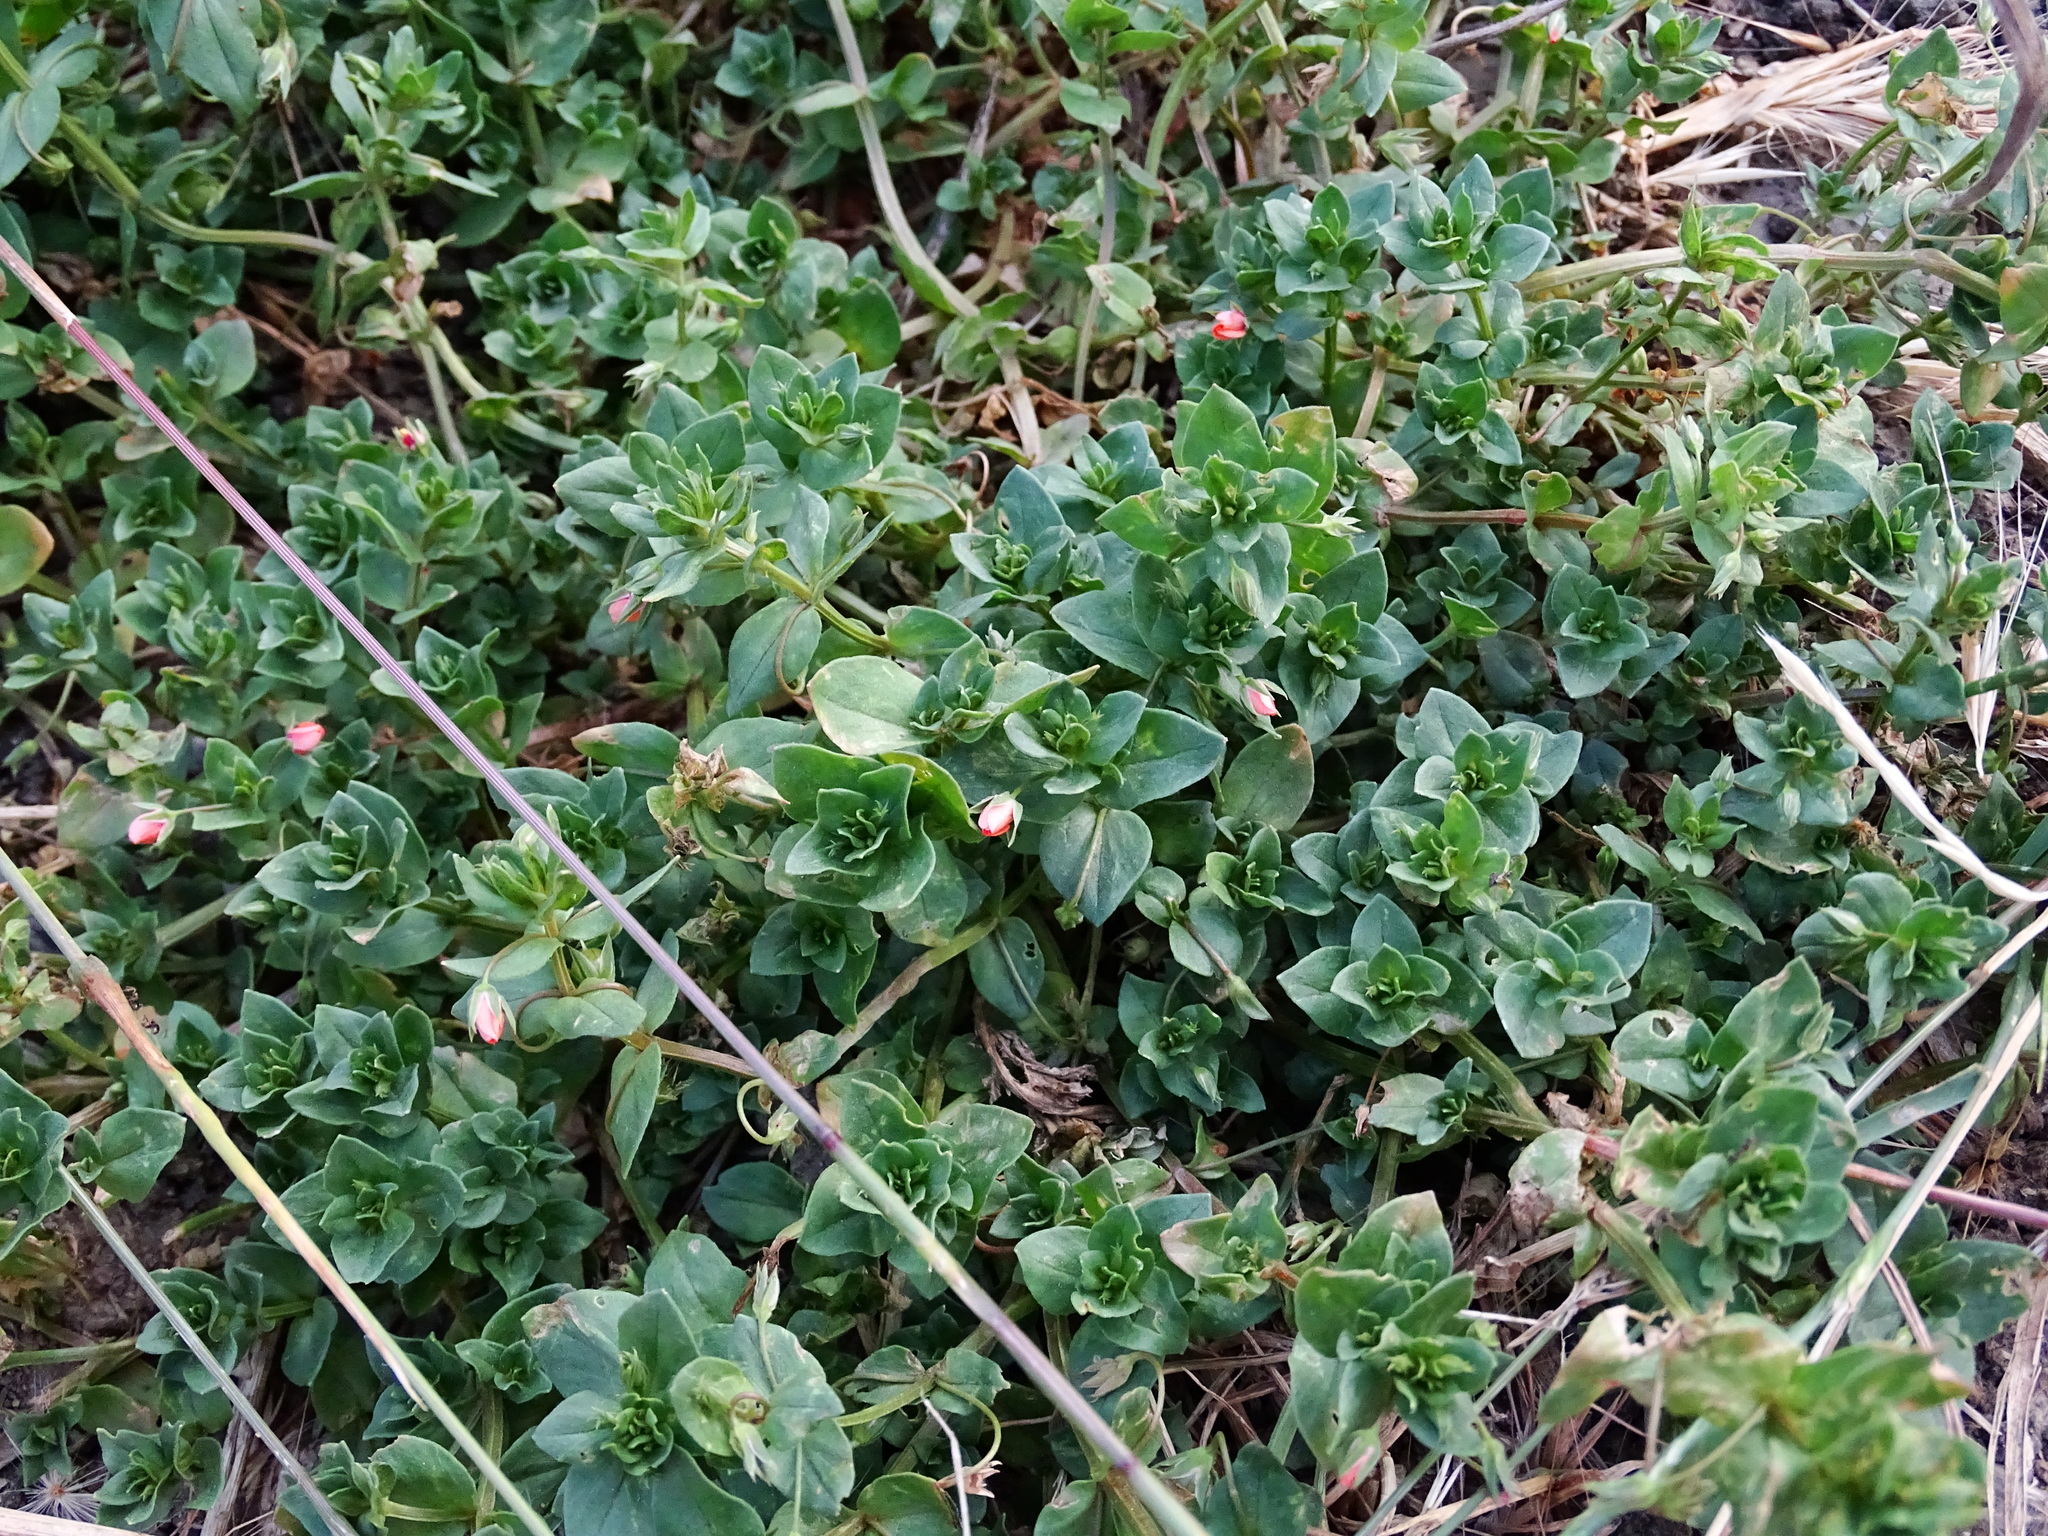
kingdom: Plantae
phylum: Tracheophyta
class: Magnoliopsida
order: Ericales
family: Primulaceae
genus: Lysimachia
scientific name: Lysimachia arvensis
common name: Scarlet pimpernel
